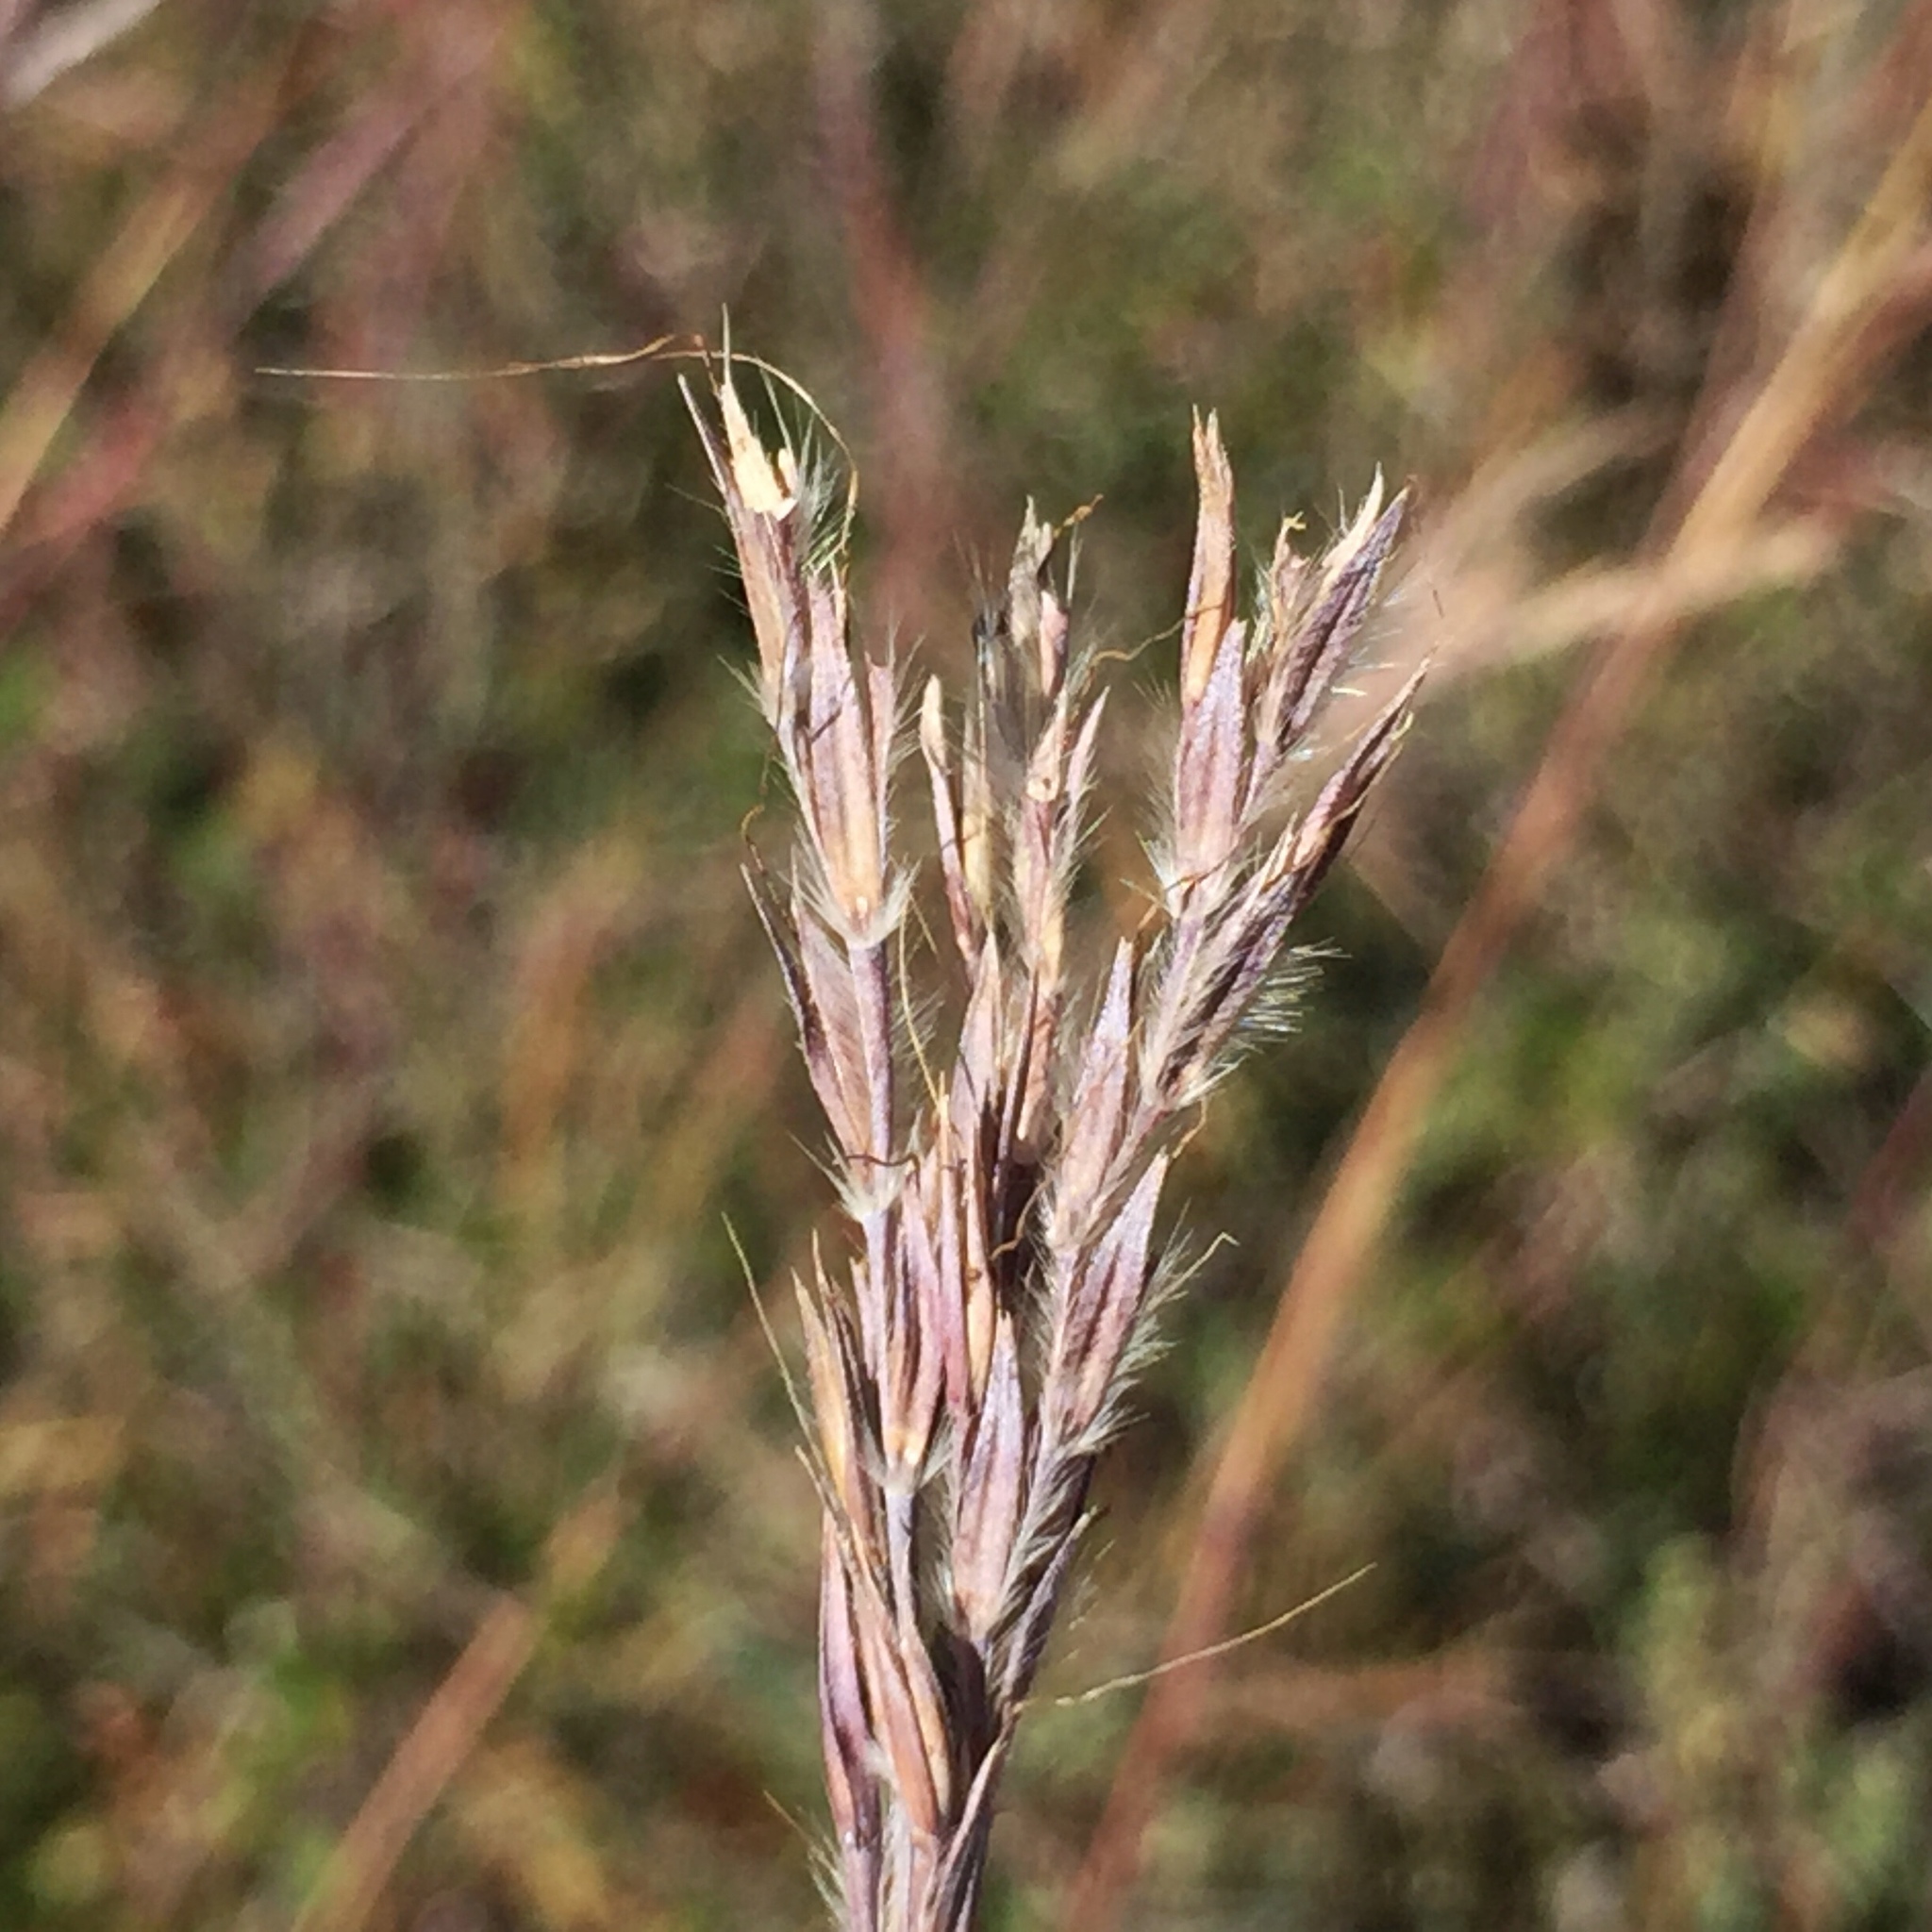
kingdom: Plantae
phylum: Tracheophyta
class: Liliopsida
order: Poales
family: Poaceae
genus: Andropogon
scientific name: Andropogon gerardi
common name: Big bluestem
